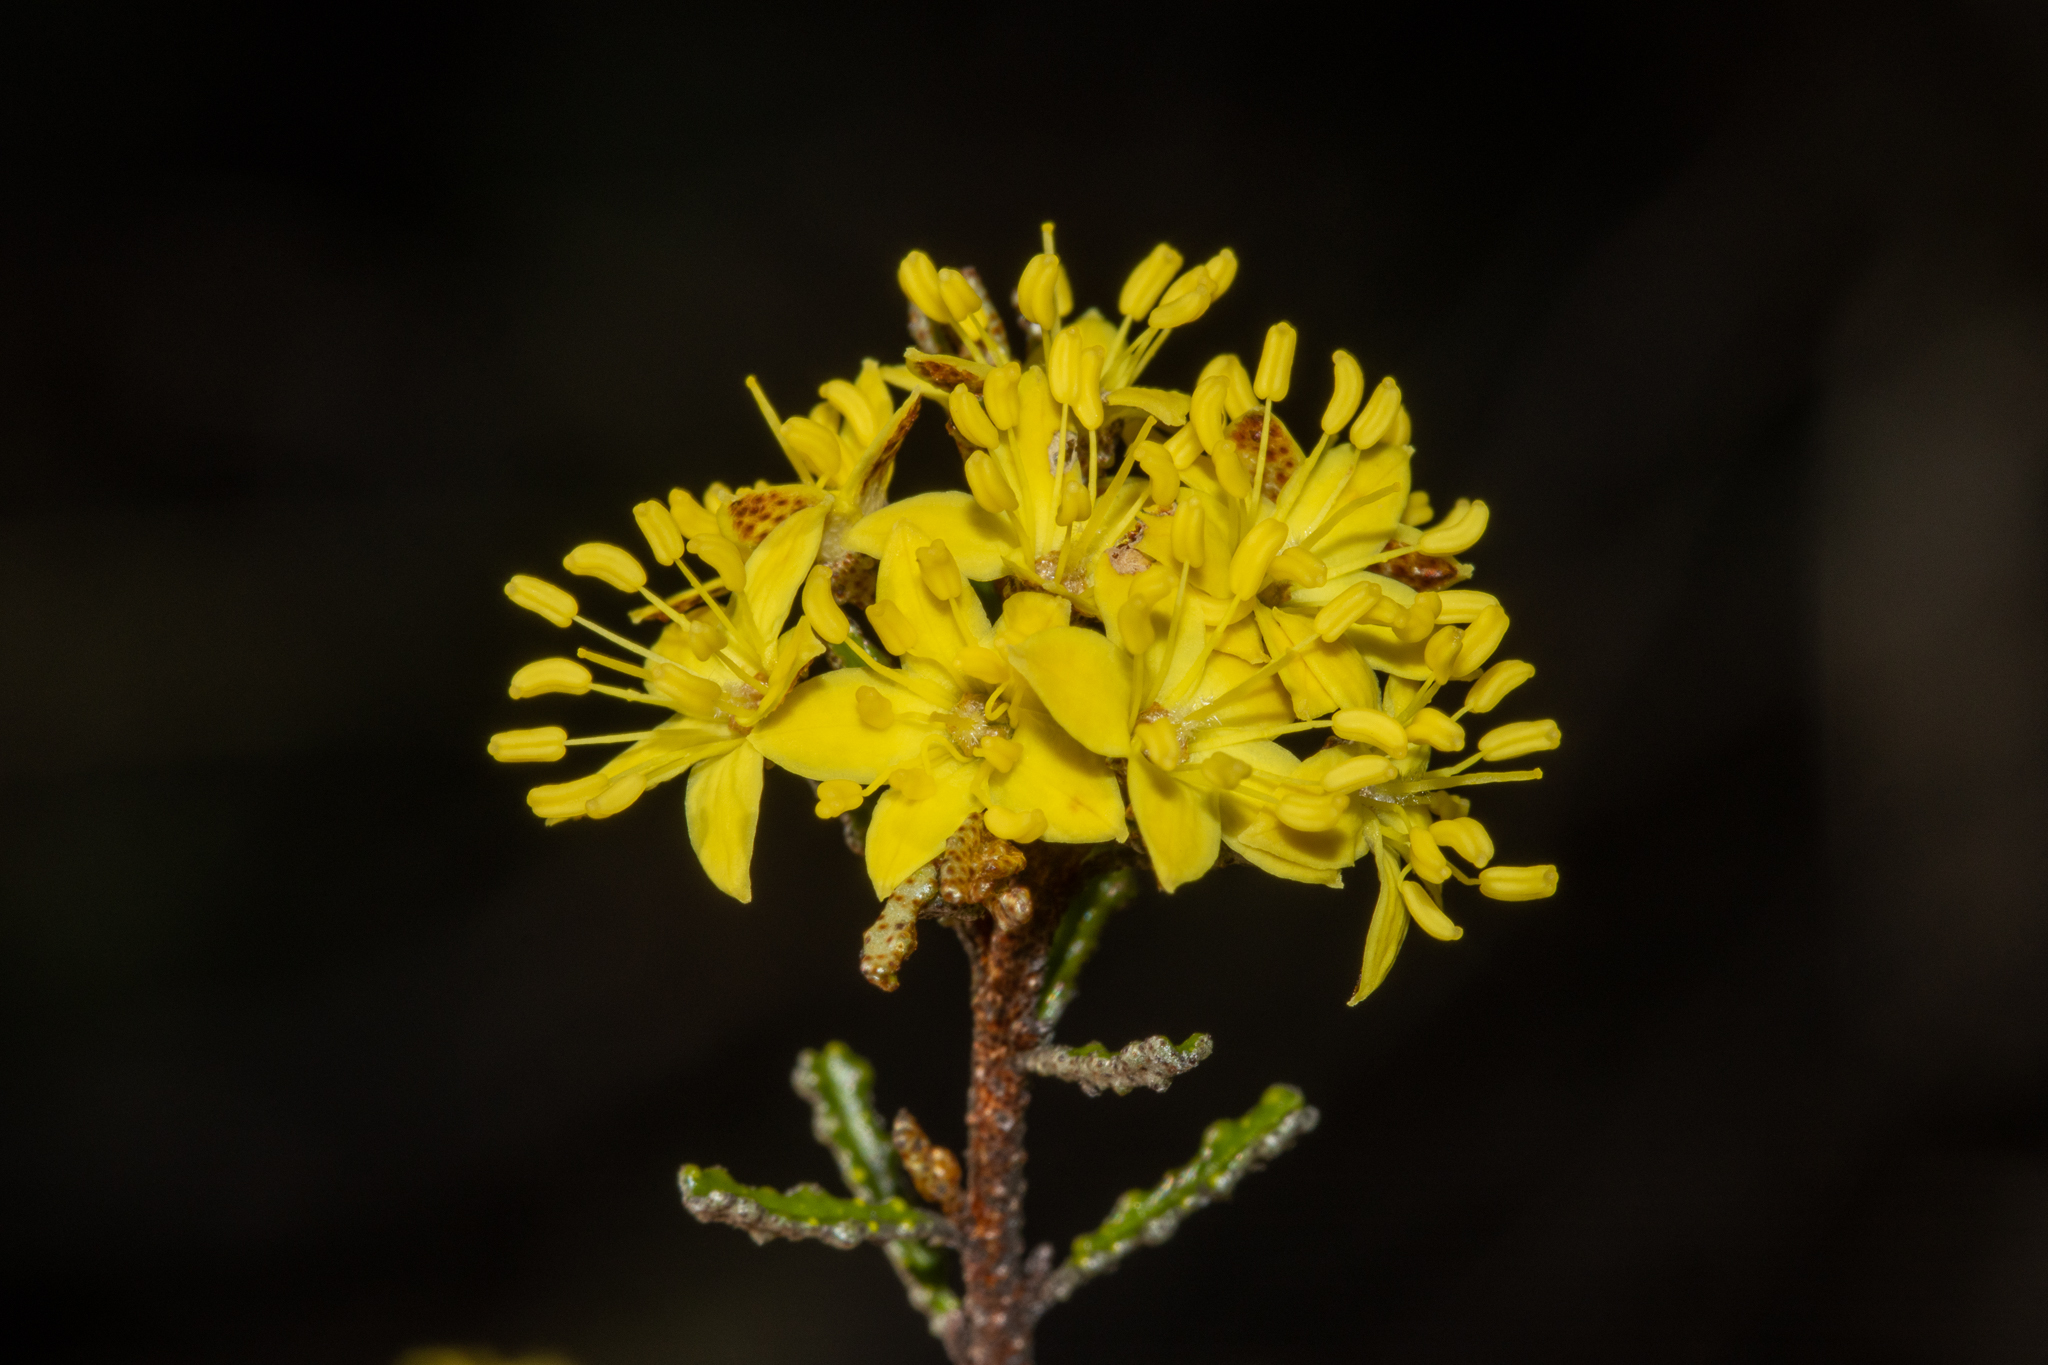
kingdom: Plantae
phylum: Tracheophyta
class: Magnoliopsida
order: Sapindales
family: Rutaceae
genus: Phebalium
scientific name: Phebalium bullatum
